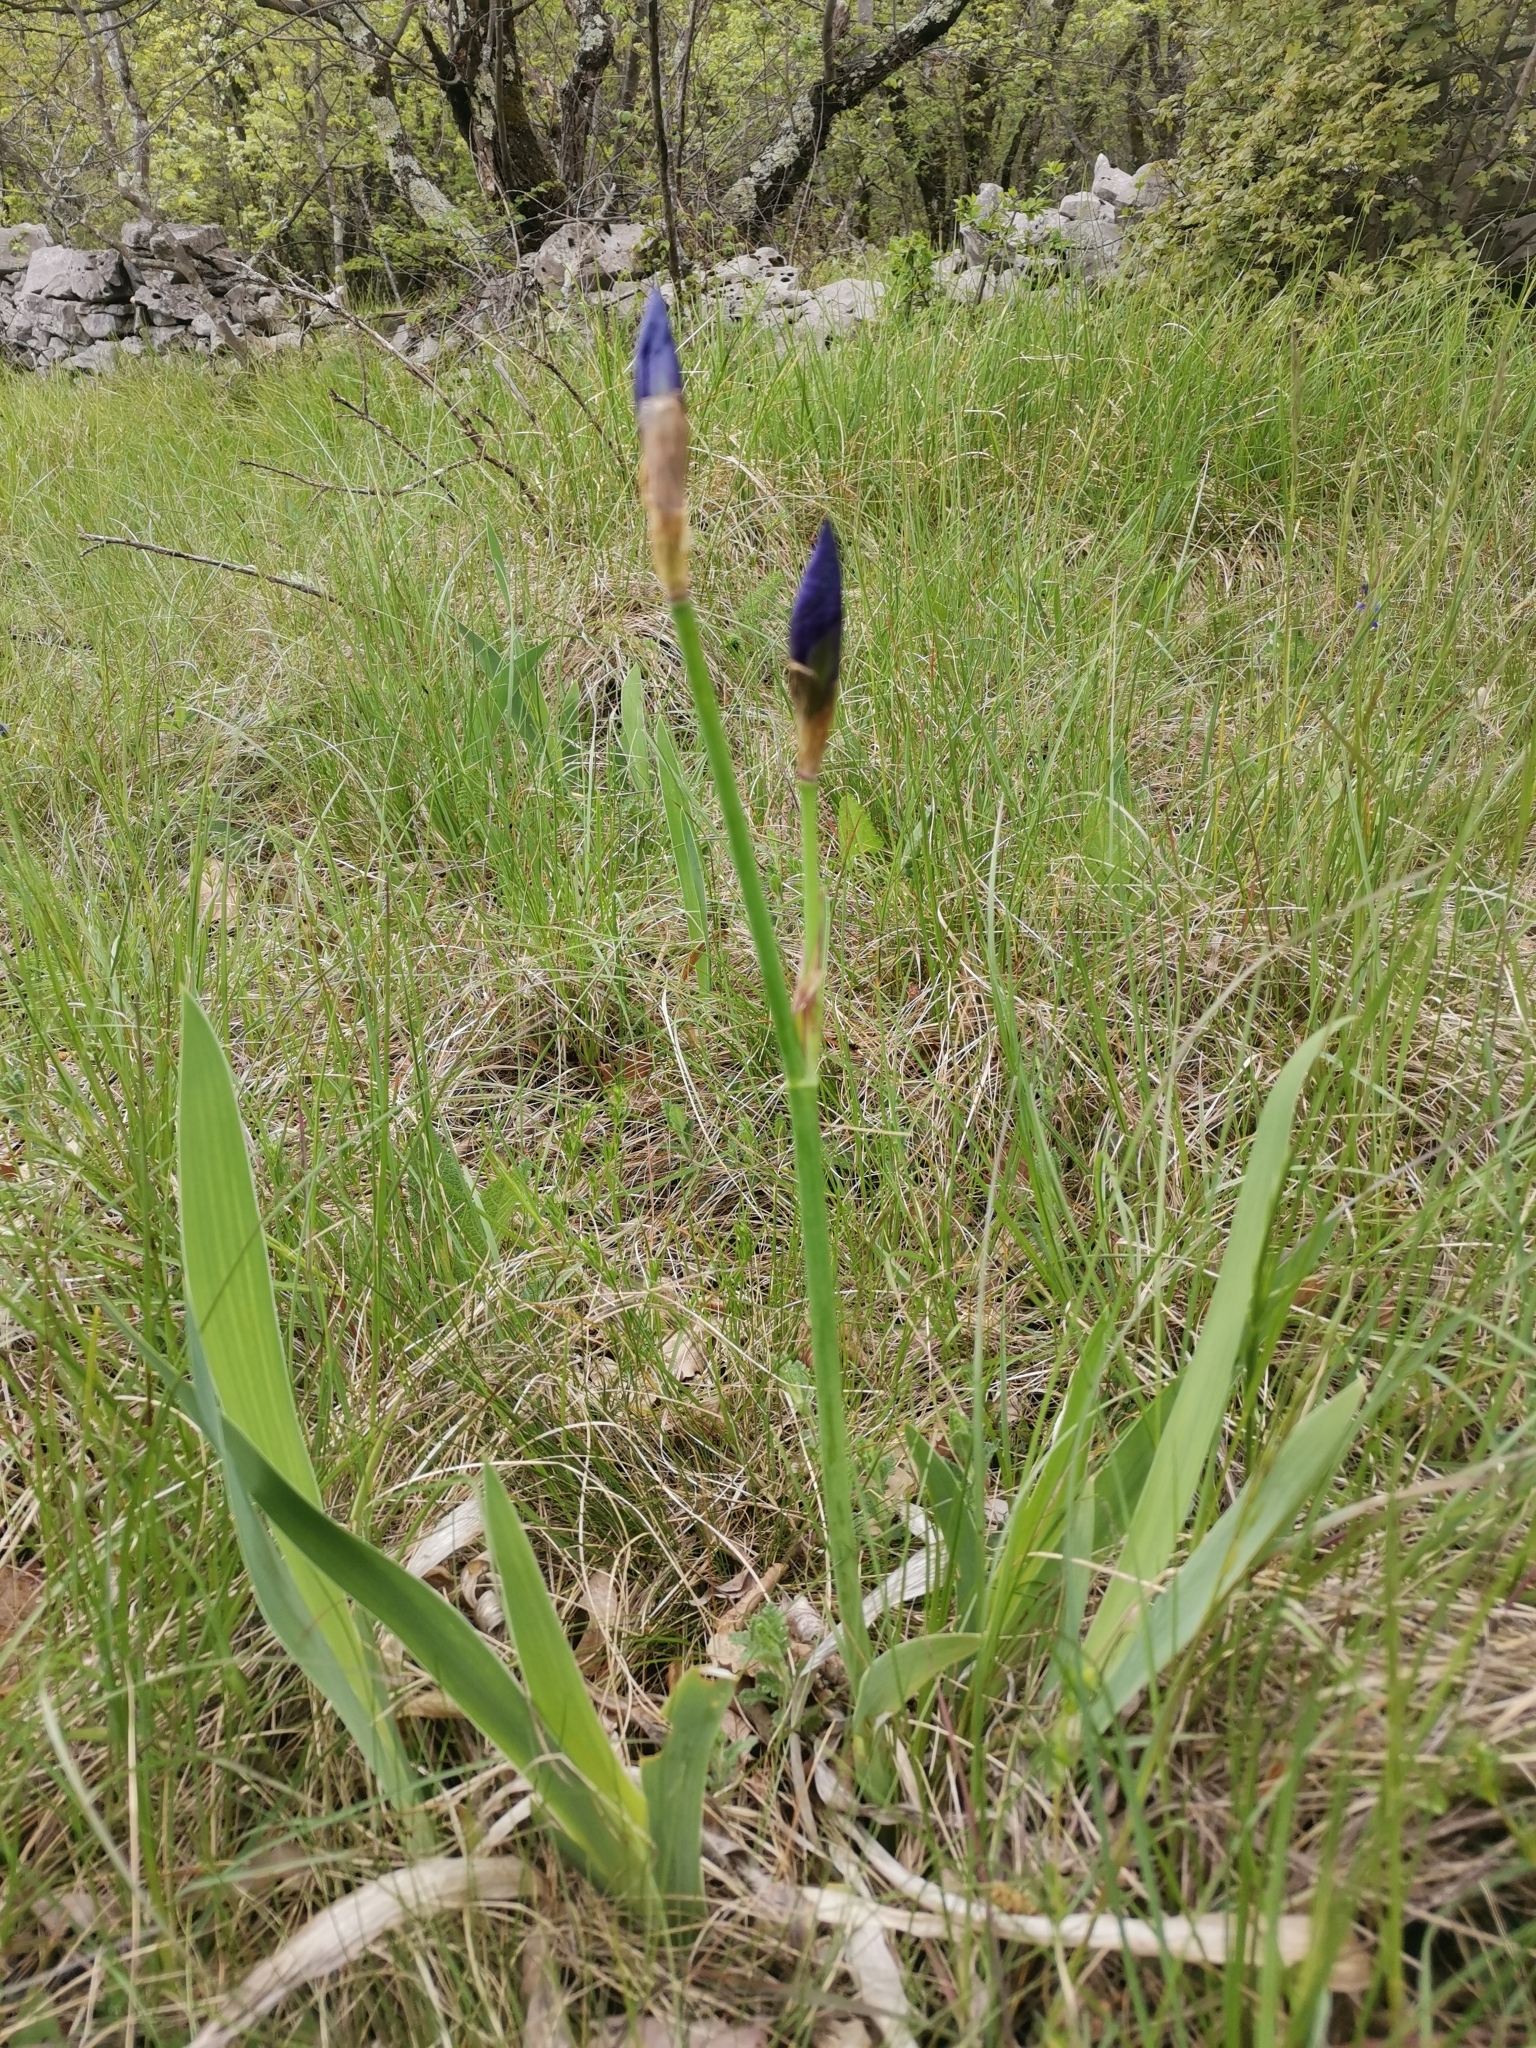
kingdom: Plantae
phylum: Tracheophyta
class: Liliopsida
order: Asparagales
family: Iridaceae
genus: Iris
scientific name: Iris pallida
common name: Sweet iris
